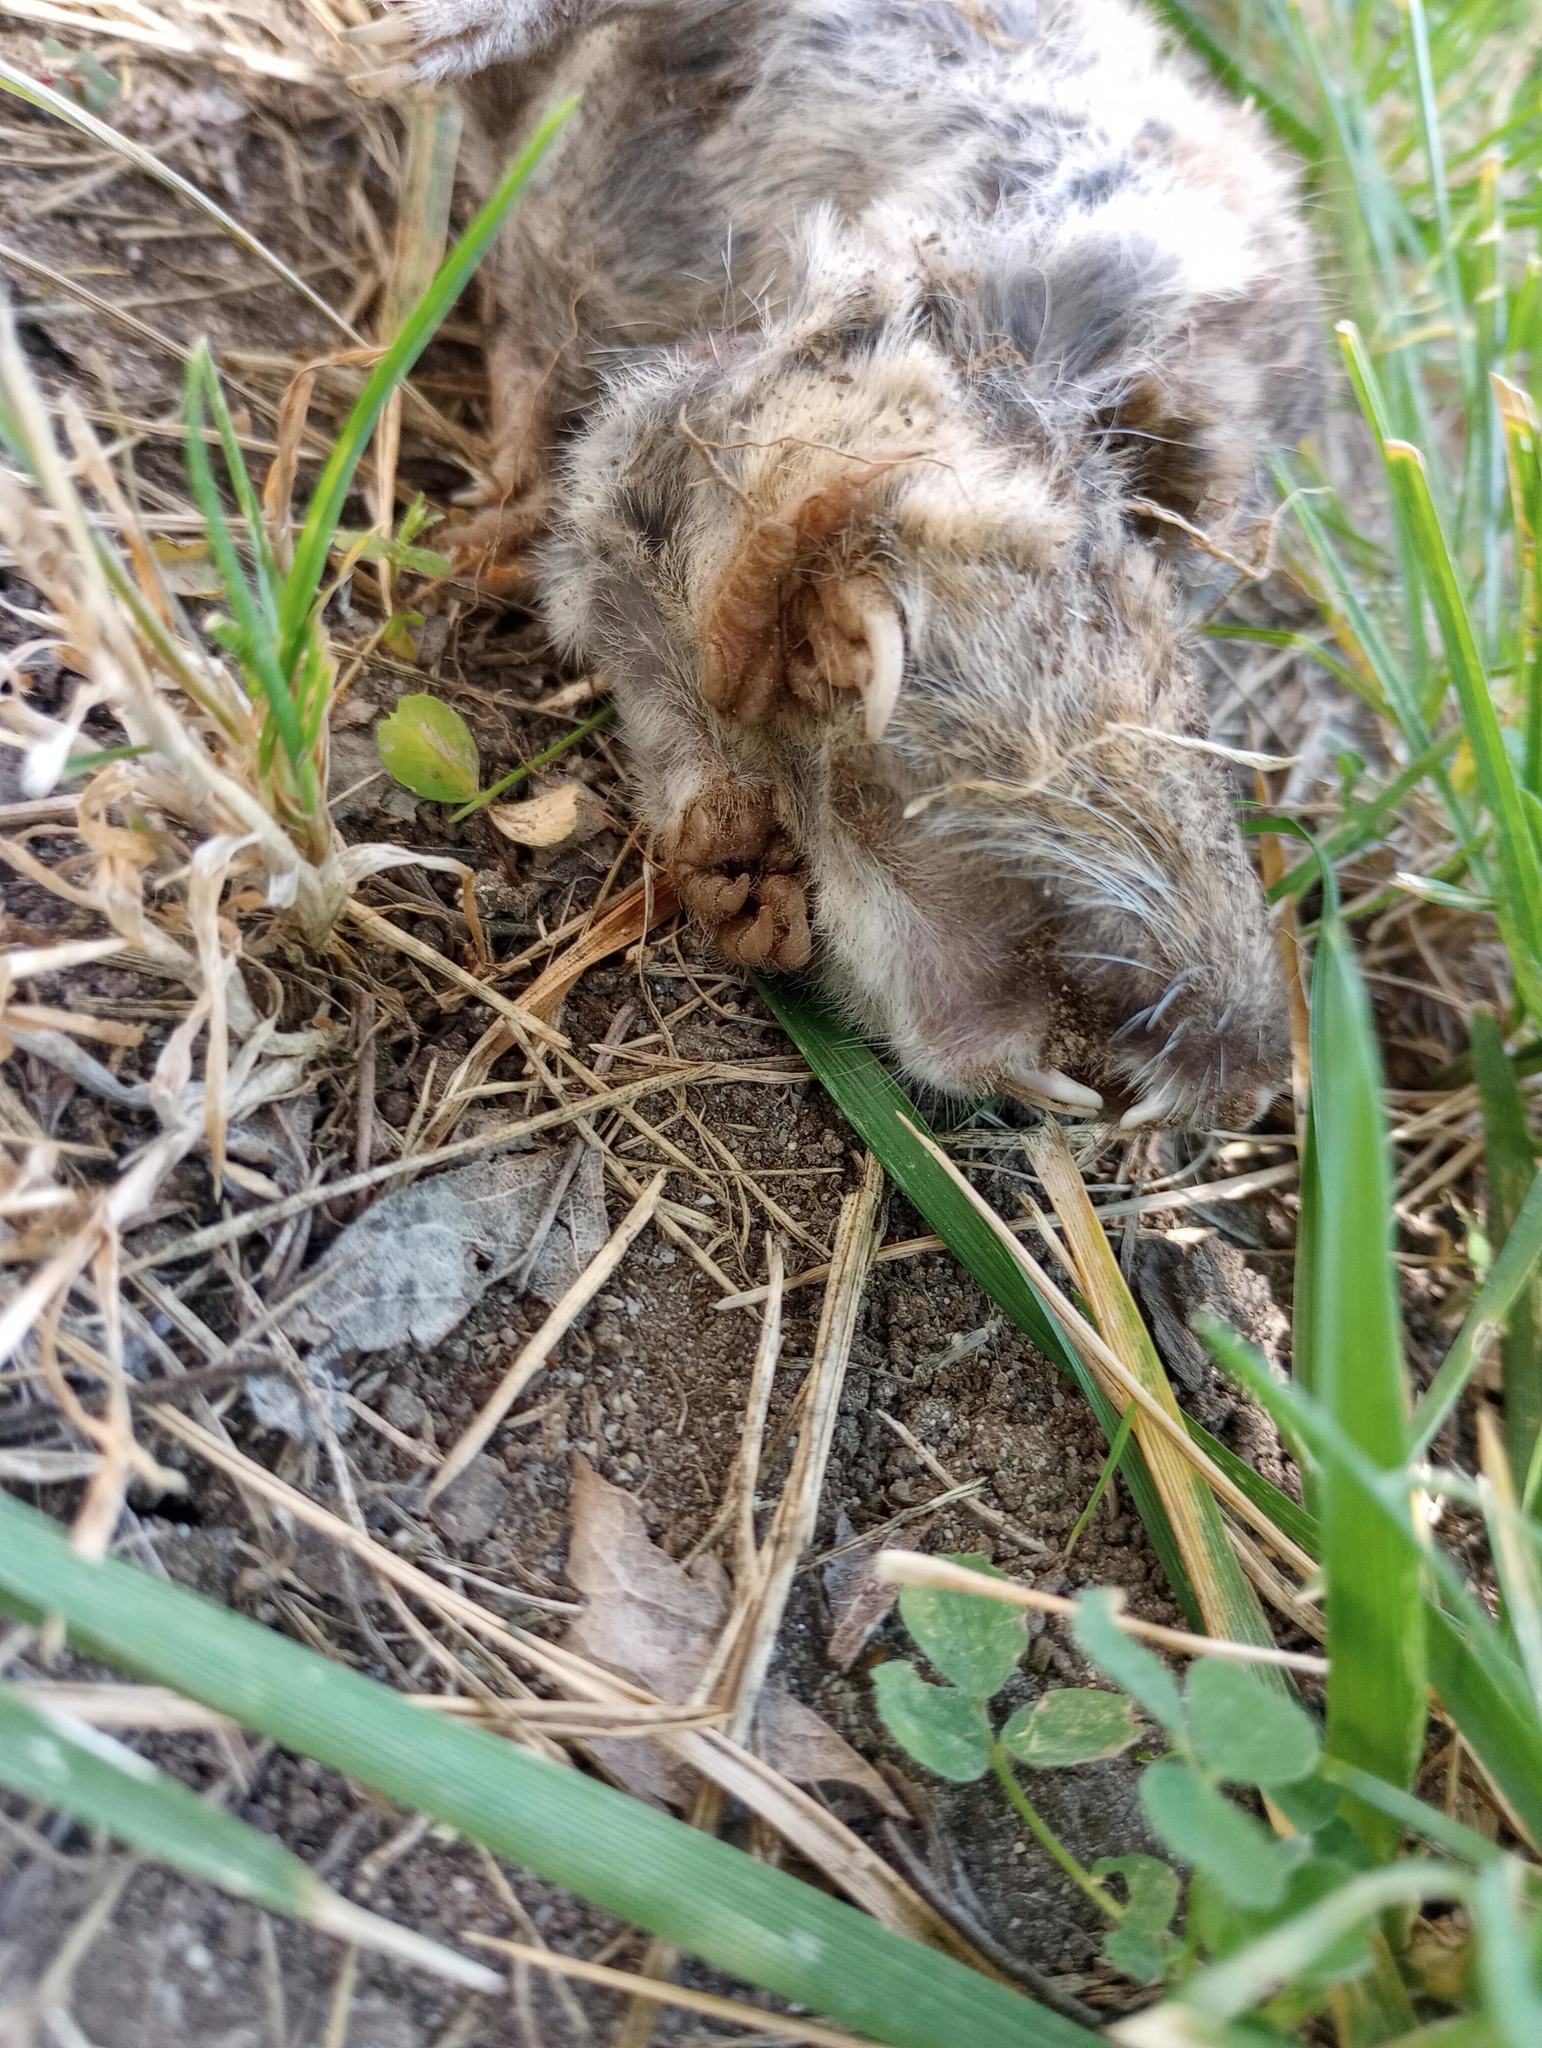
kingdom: Animalia
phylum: Chordata
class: Mammalia
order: Rodentia
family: Geomyidae
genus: Thomomys
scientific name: Thomomys bottae
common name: Botta's pocket gopher
